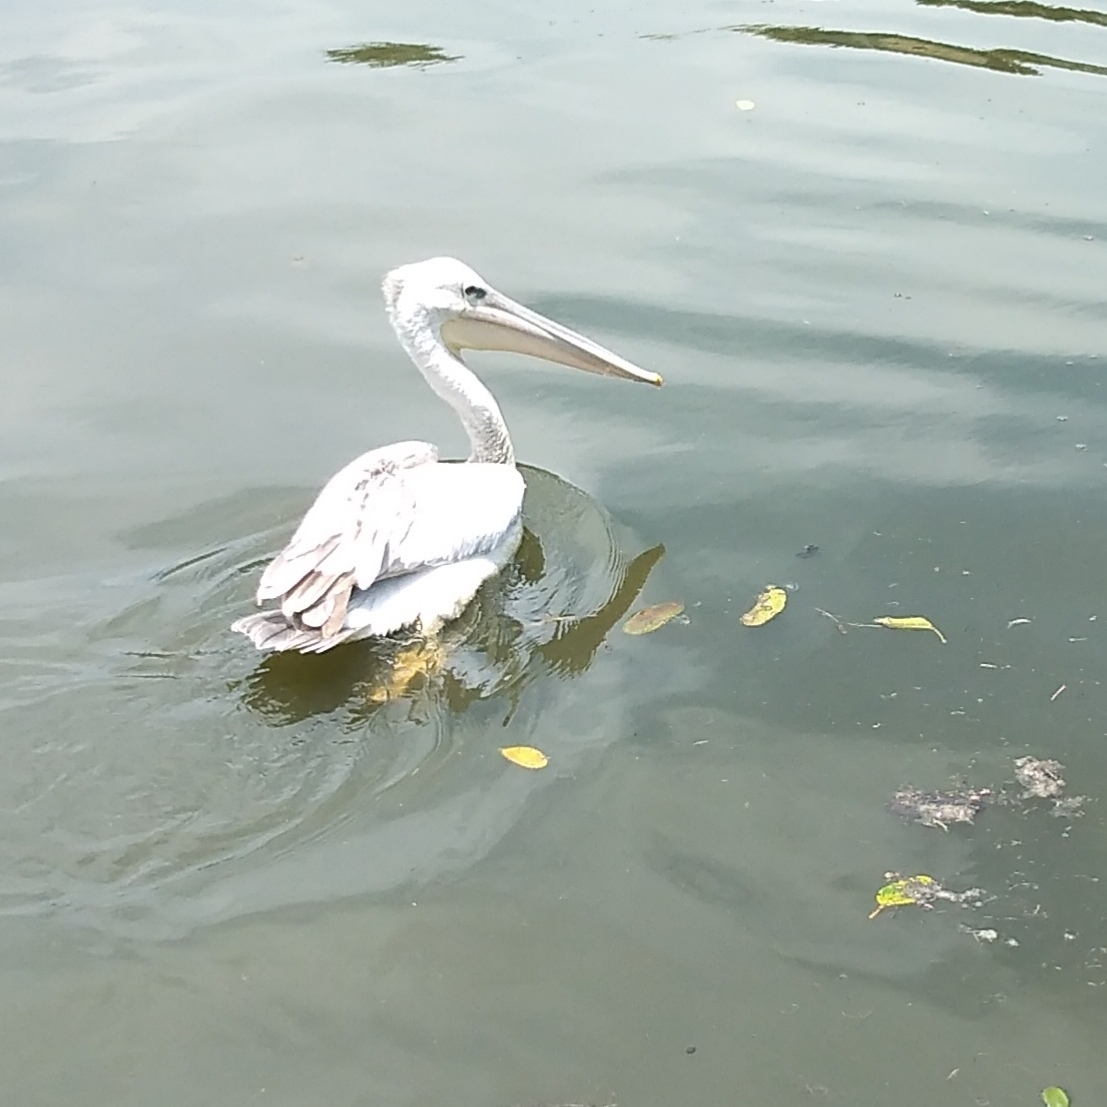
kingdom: Animalia
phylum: Chordata
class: Aves
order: Pelecaniformes
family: Pelecanidae
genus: Pelecanus
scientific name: Pelecanus rufescens
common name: Pink-backed pelican
